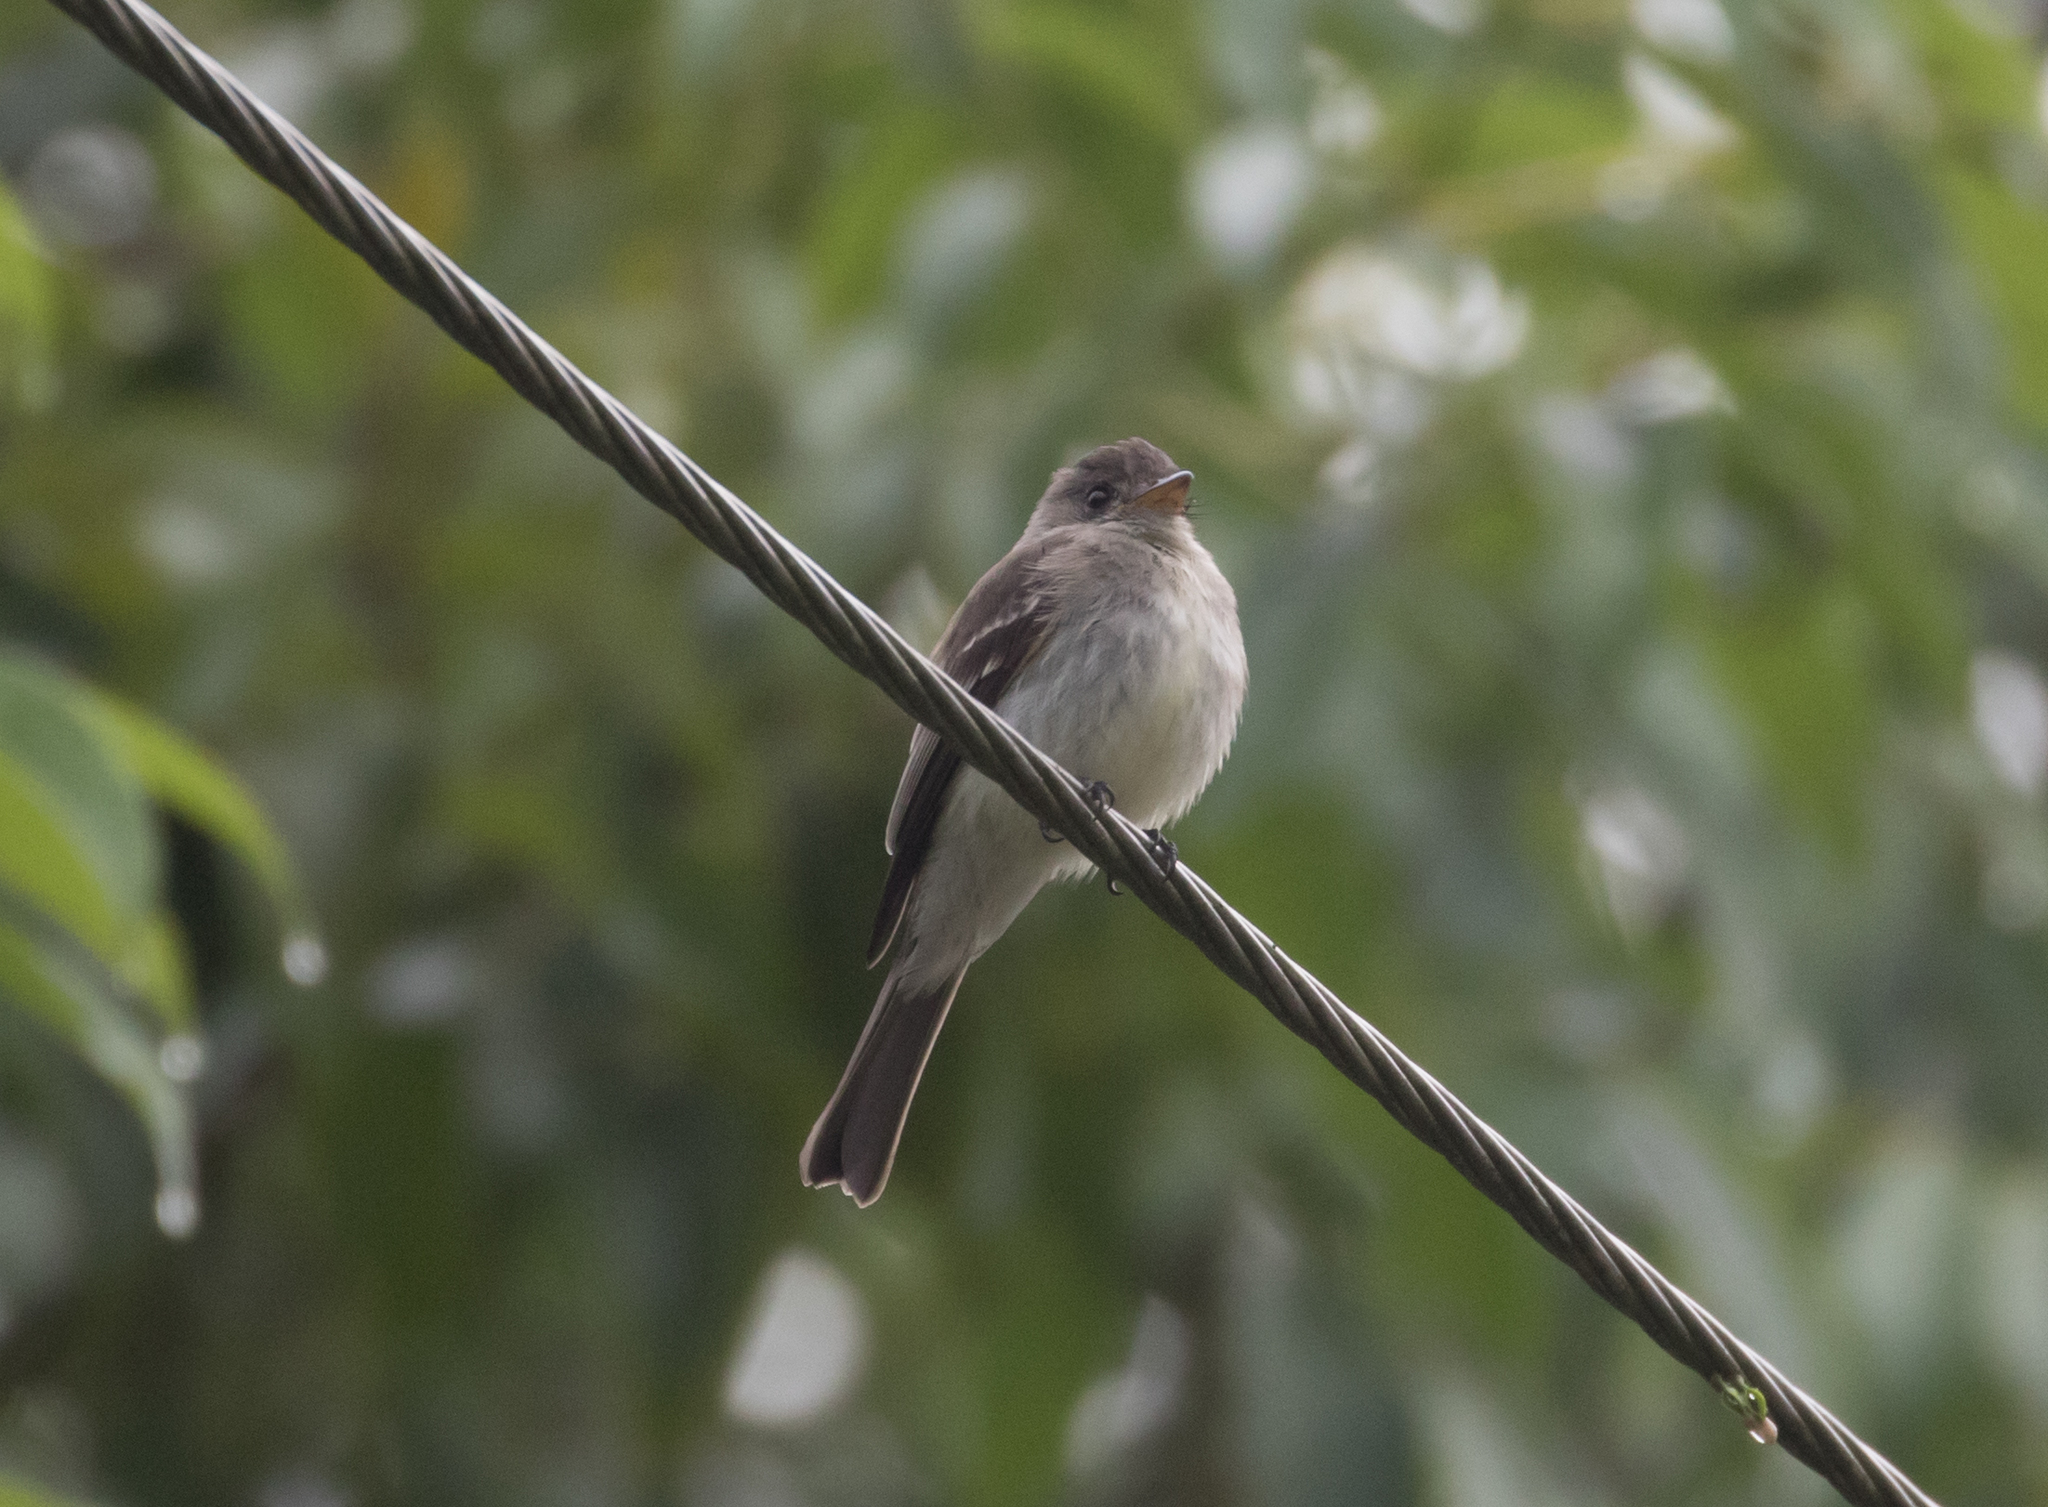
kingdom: Animalia
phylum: Chordata
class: Aves
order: Passeriformes
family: Tyrannidae
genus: Contopus
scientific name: Contopus cinereus
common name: Tropical pewee
